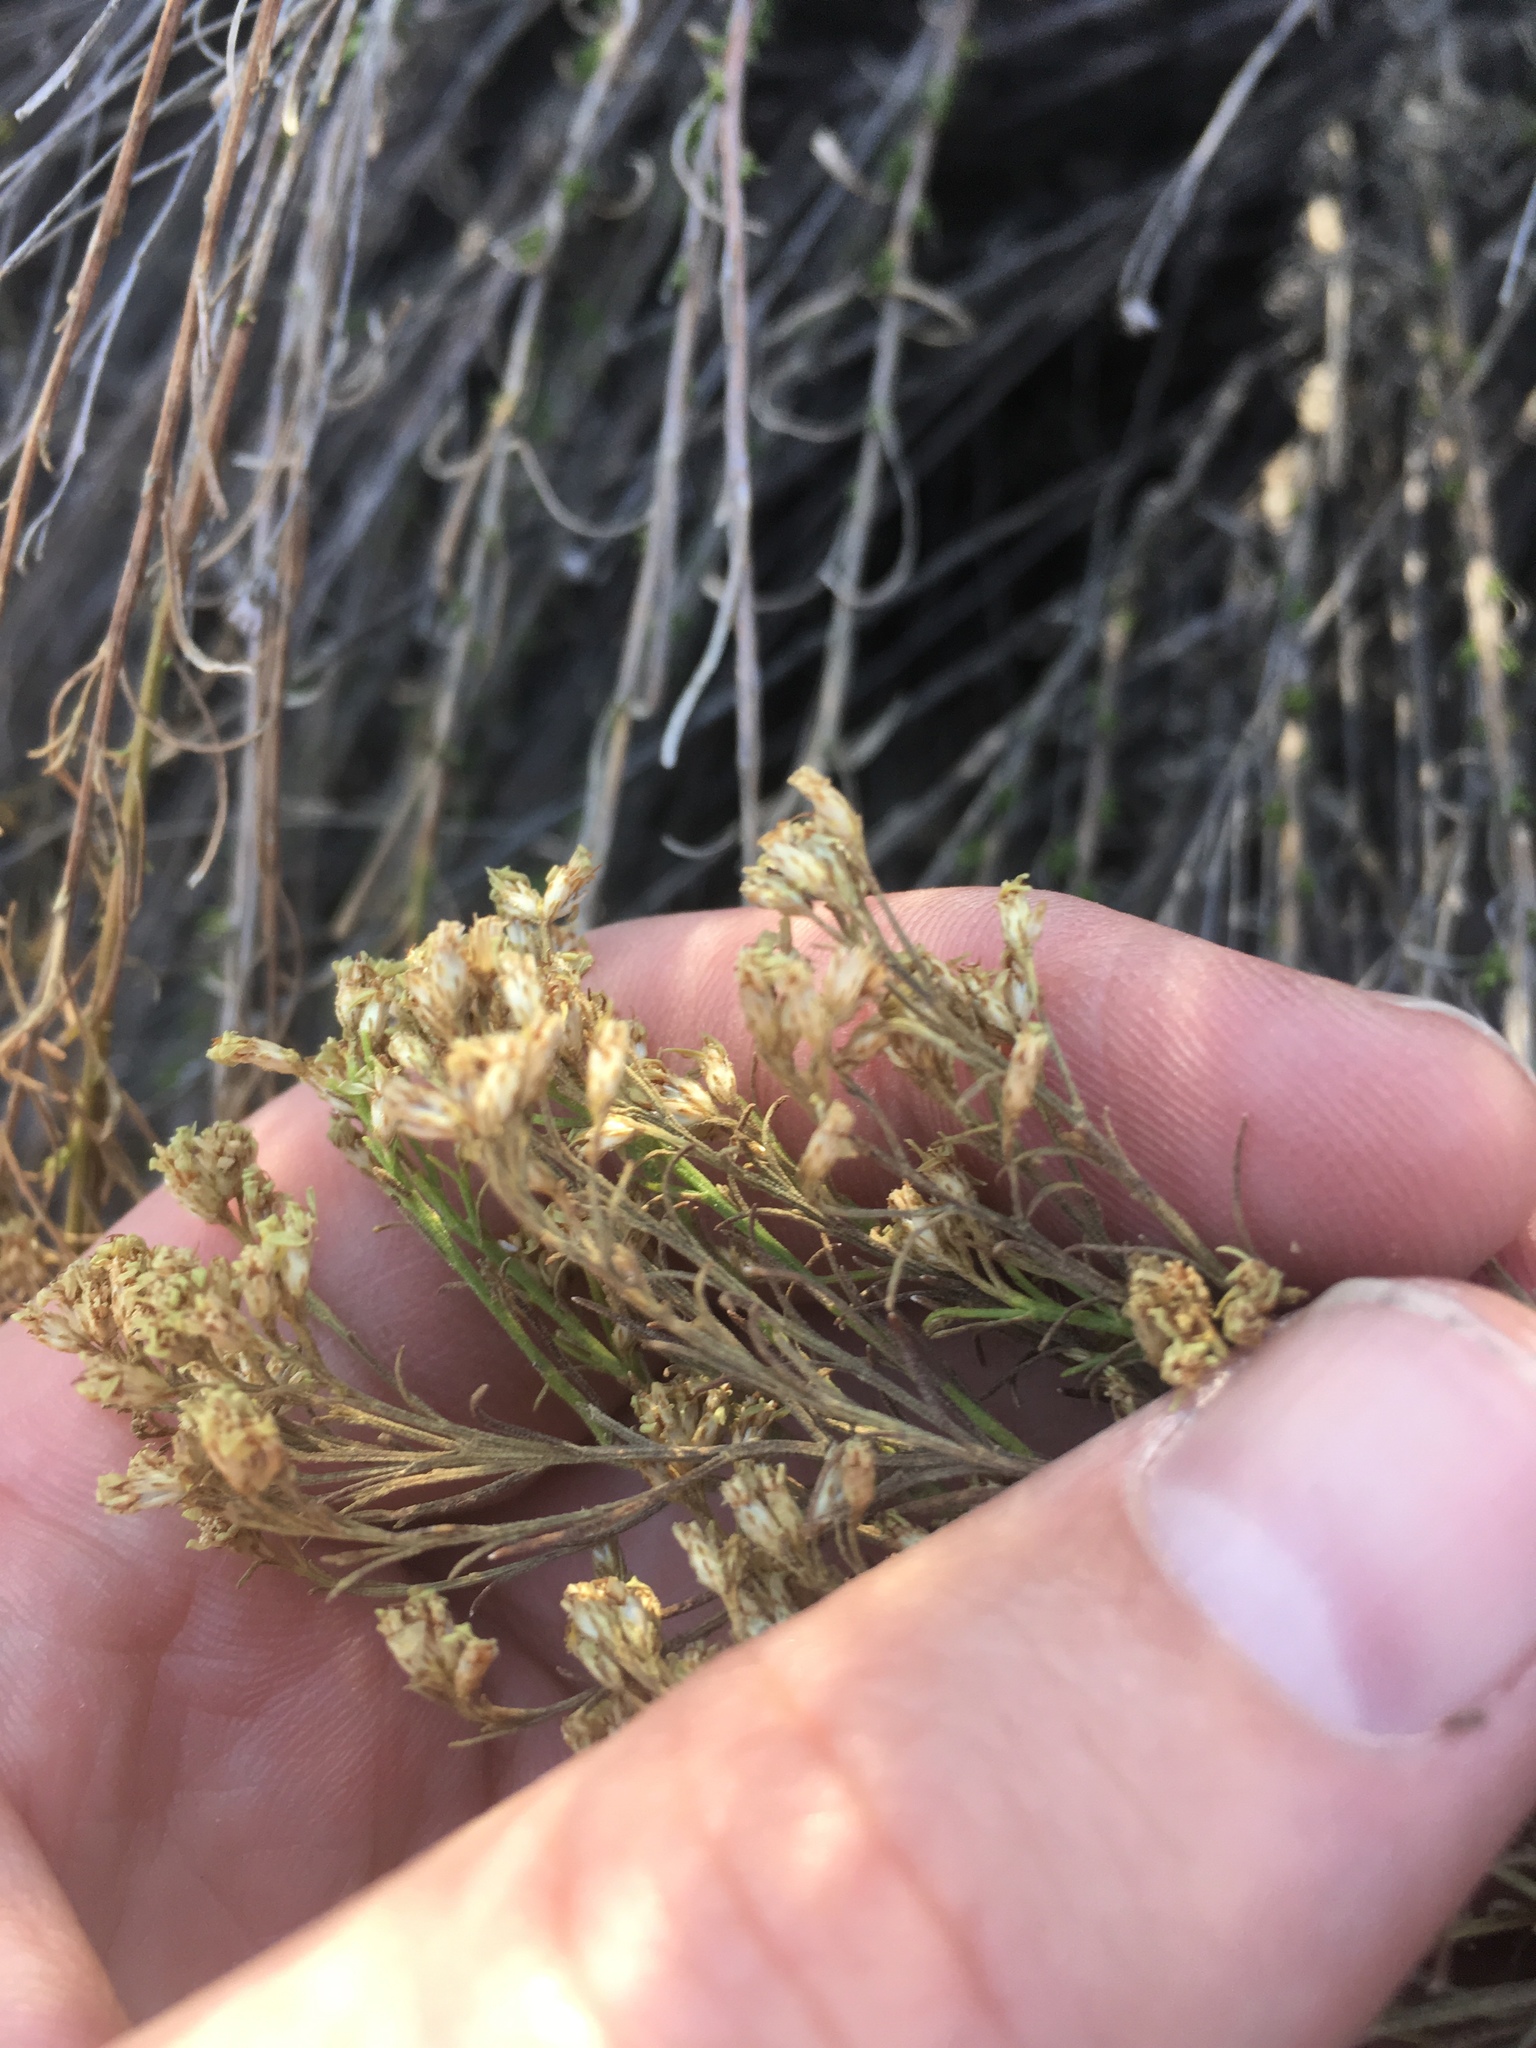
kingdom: Plantae
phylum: Tracheophyta
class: Magnoliopsida
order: Asterales
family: Asteraceae
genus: Gutierrezia
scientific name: Gutierrezia sarothrae
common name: Broom snakeweed
